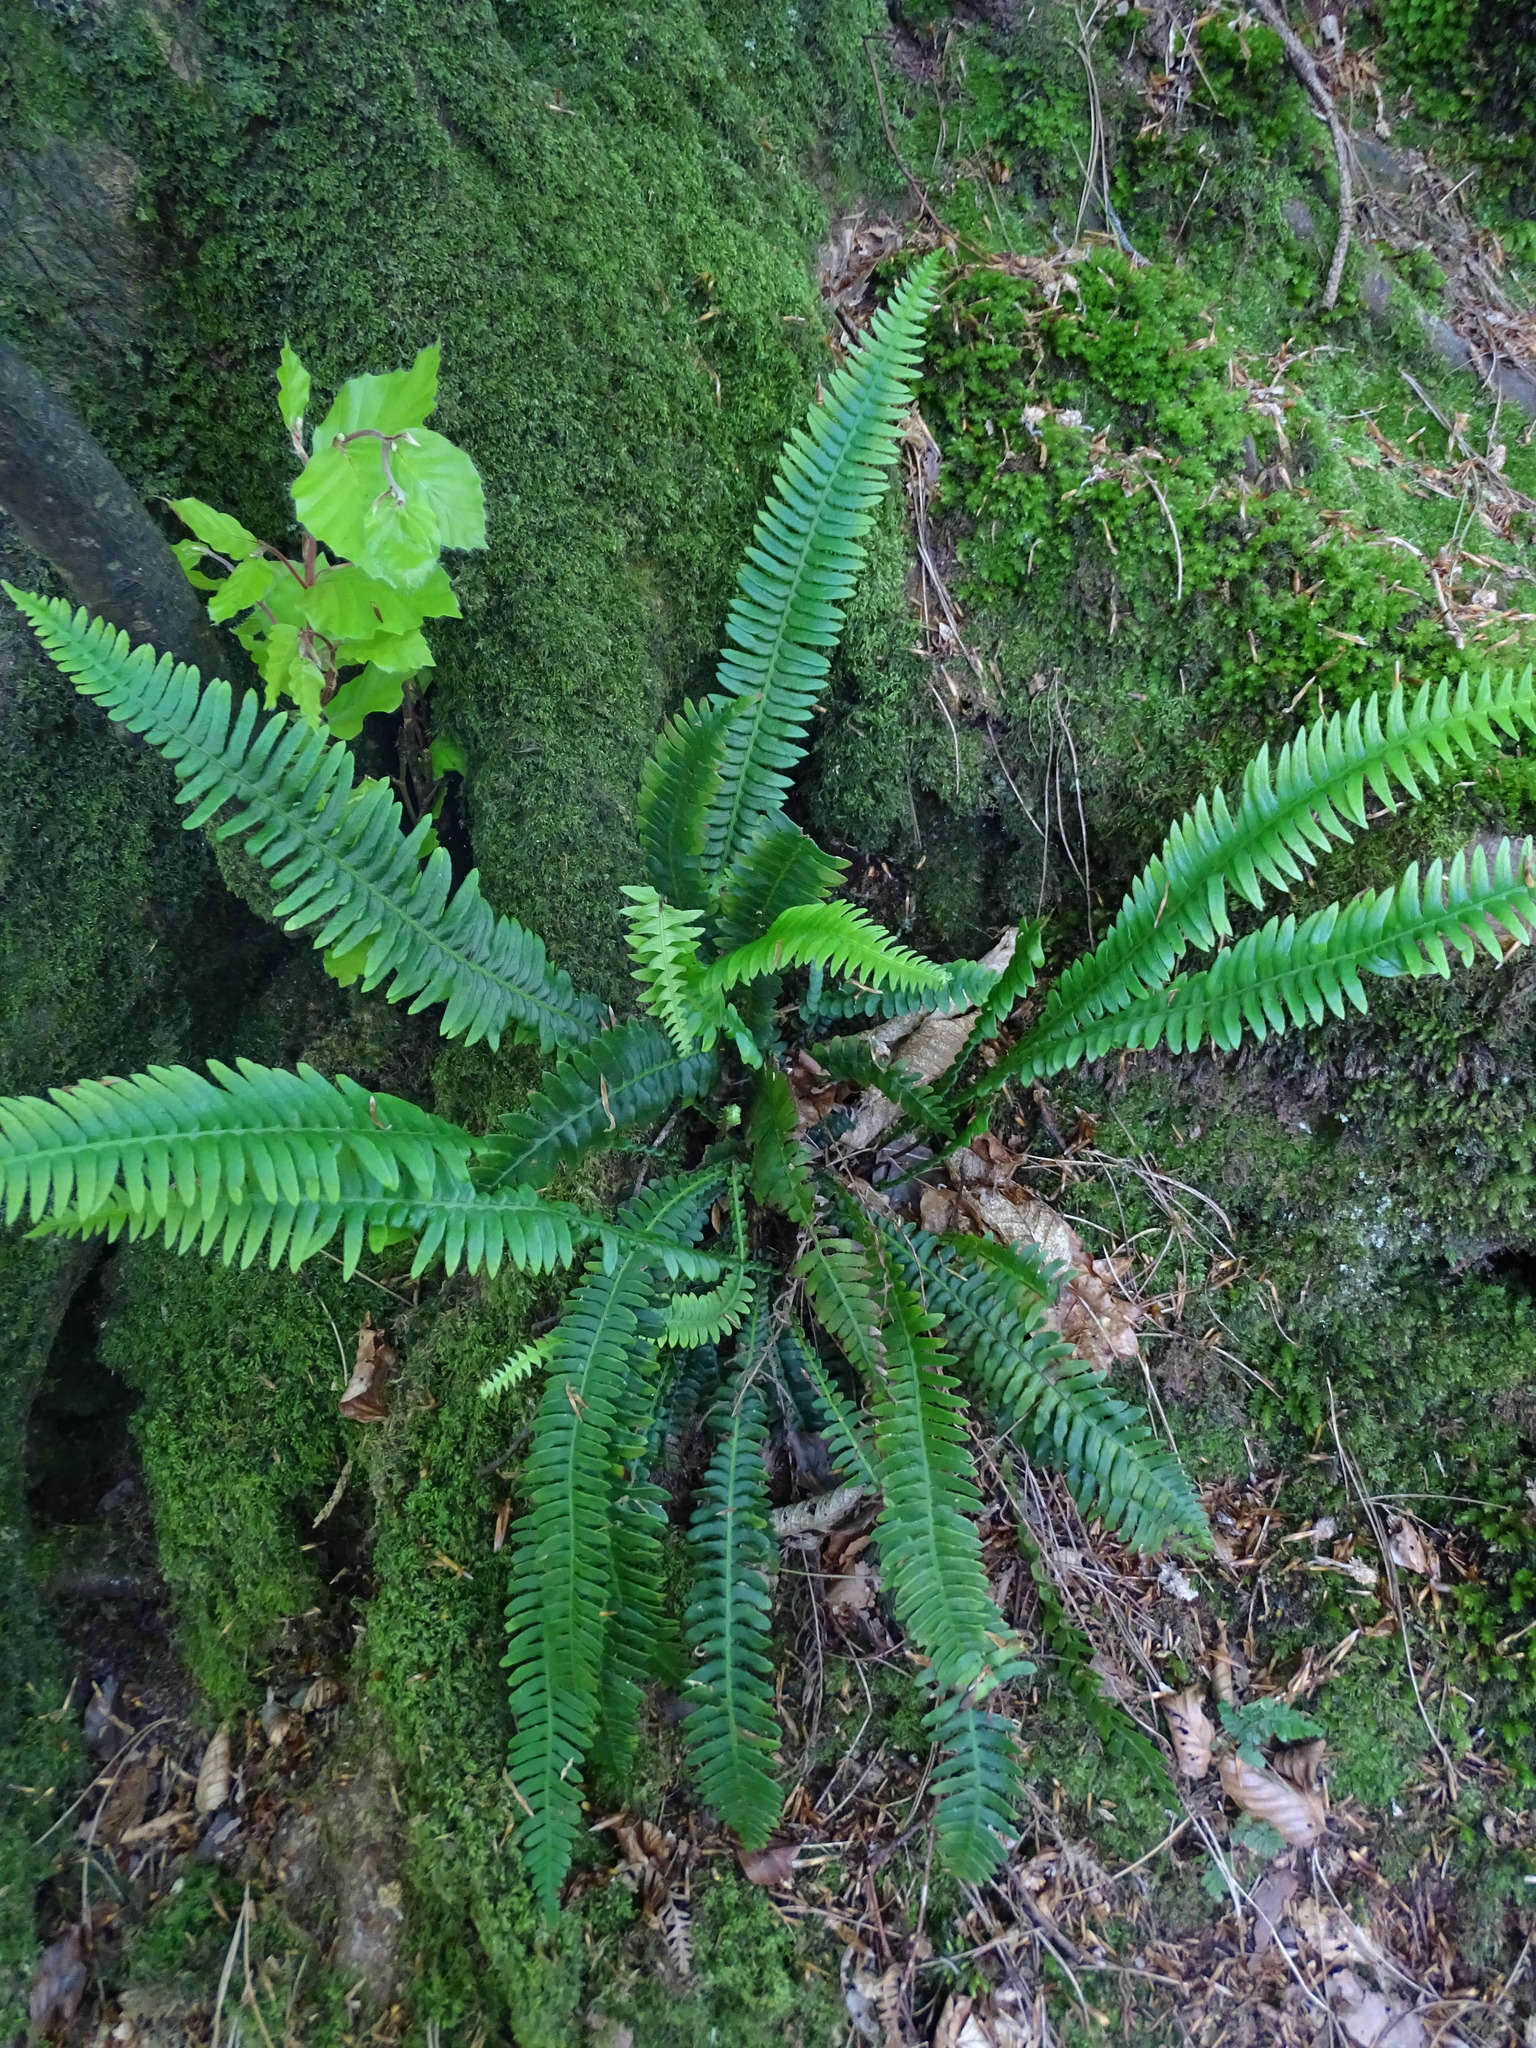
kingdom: Plantae
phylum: Tracheophyta
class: Polypodiopsida
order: Polypodiales
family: Blechnaceae
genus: Struthiopteris
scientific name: Struthiopteris spicant
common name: Deer fern
